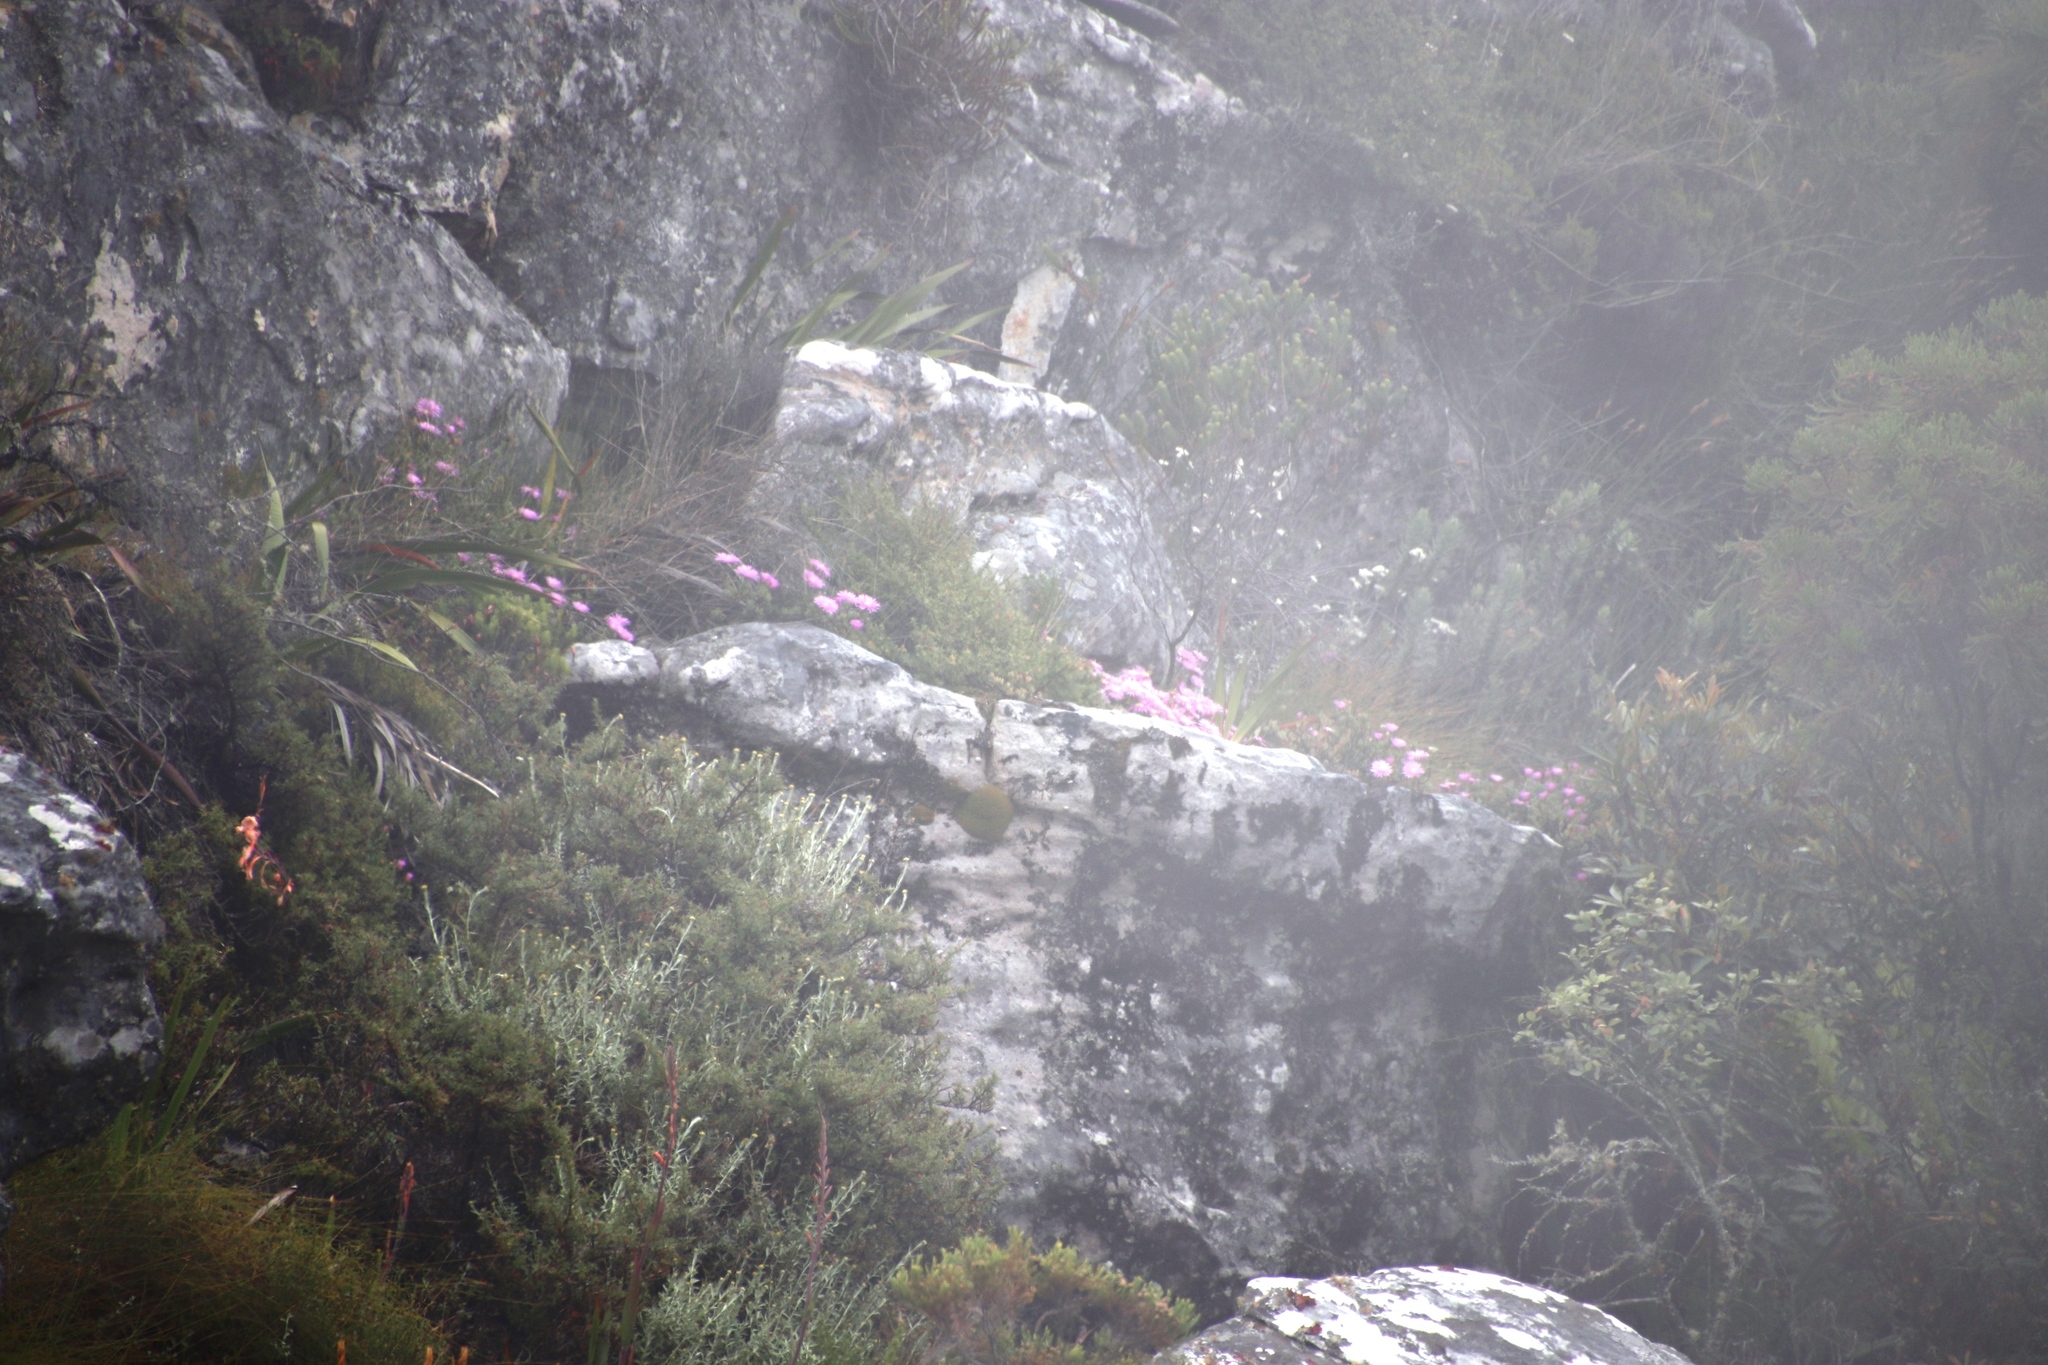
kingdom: Plantae
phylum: Tracheophyta
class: Magnoliopsida
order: Caryophyllales
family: Aizoaceae
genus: Oscularia
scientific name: Oscularia falciformis
